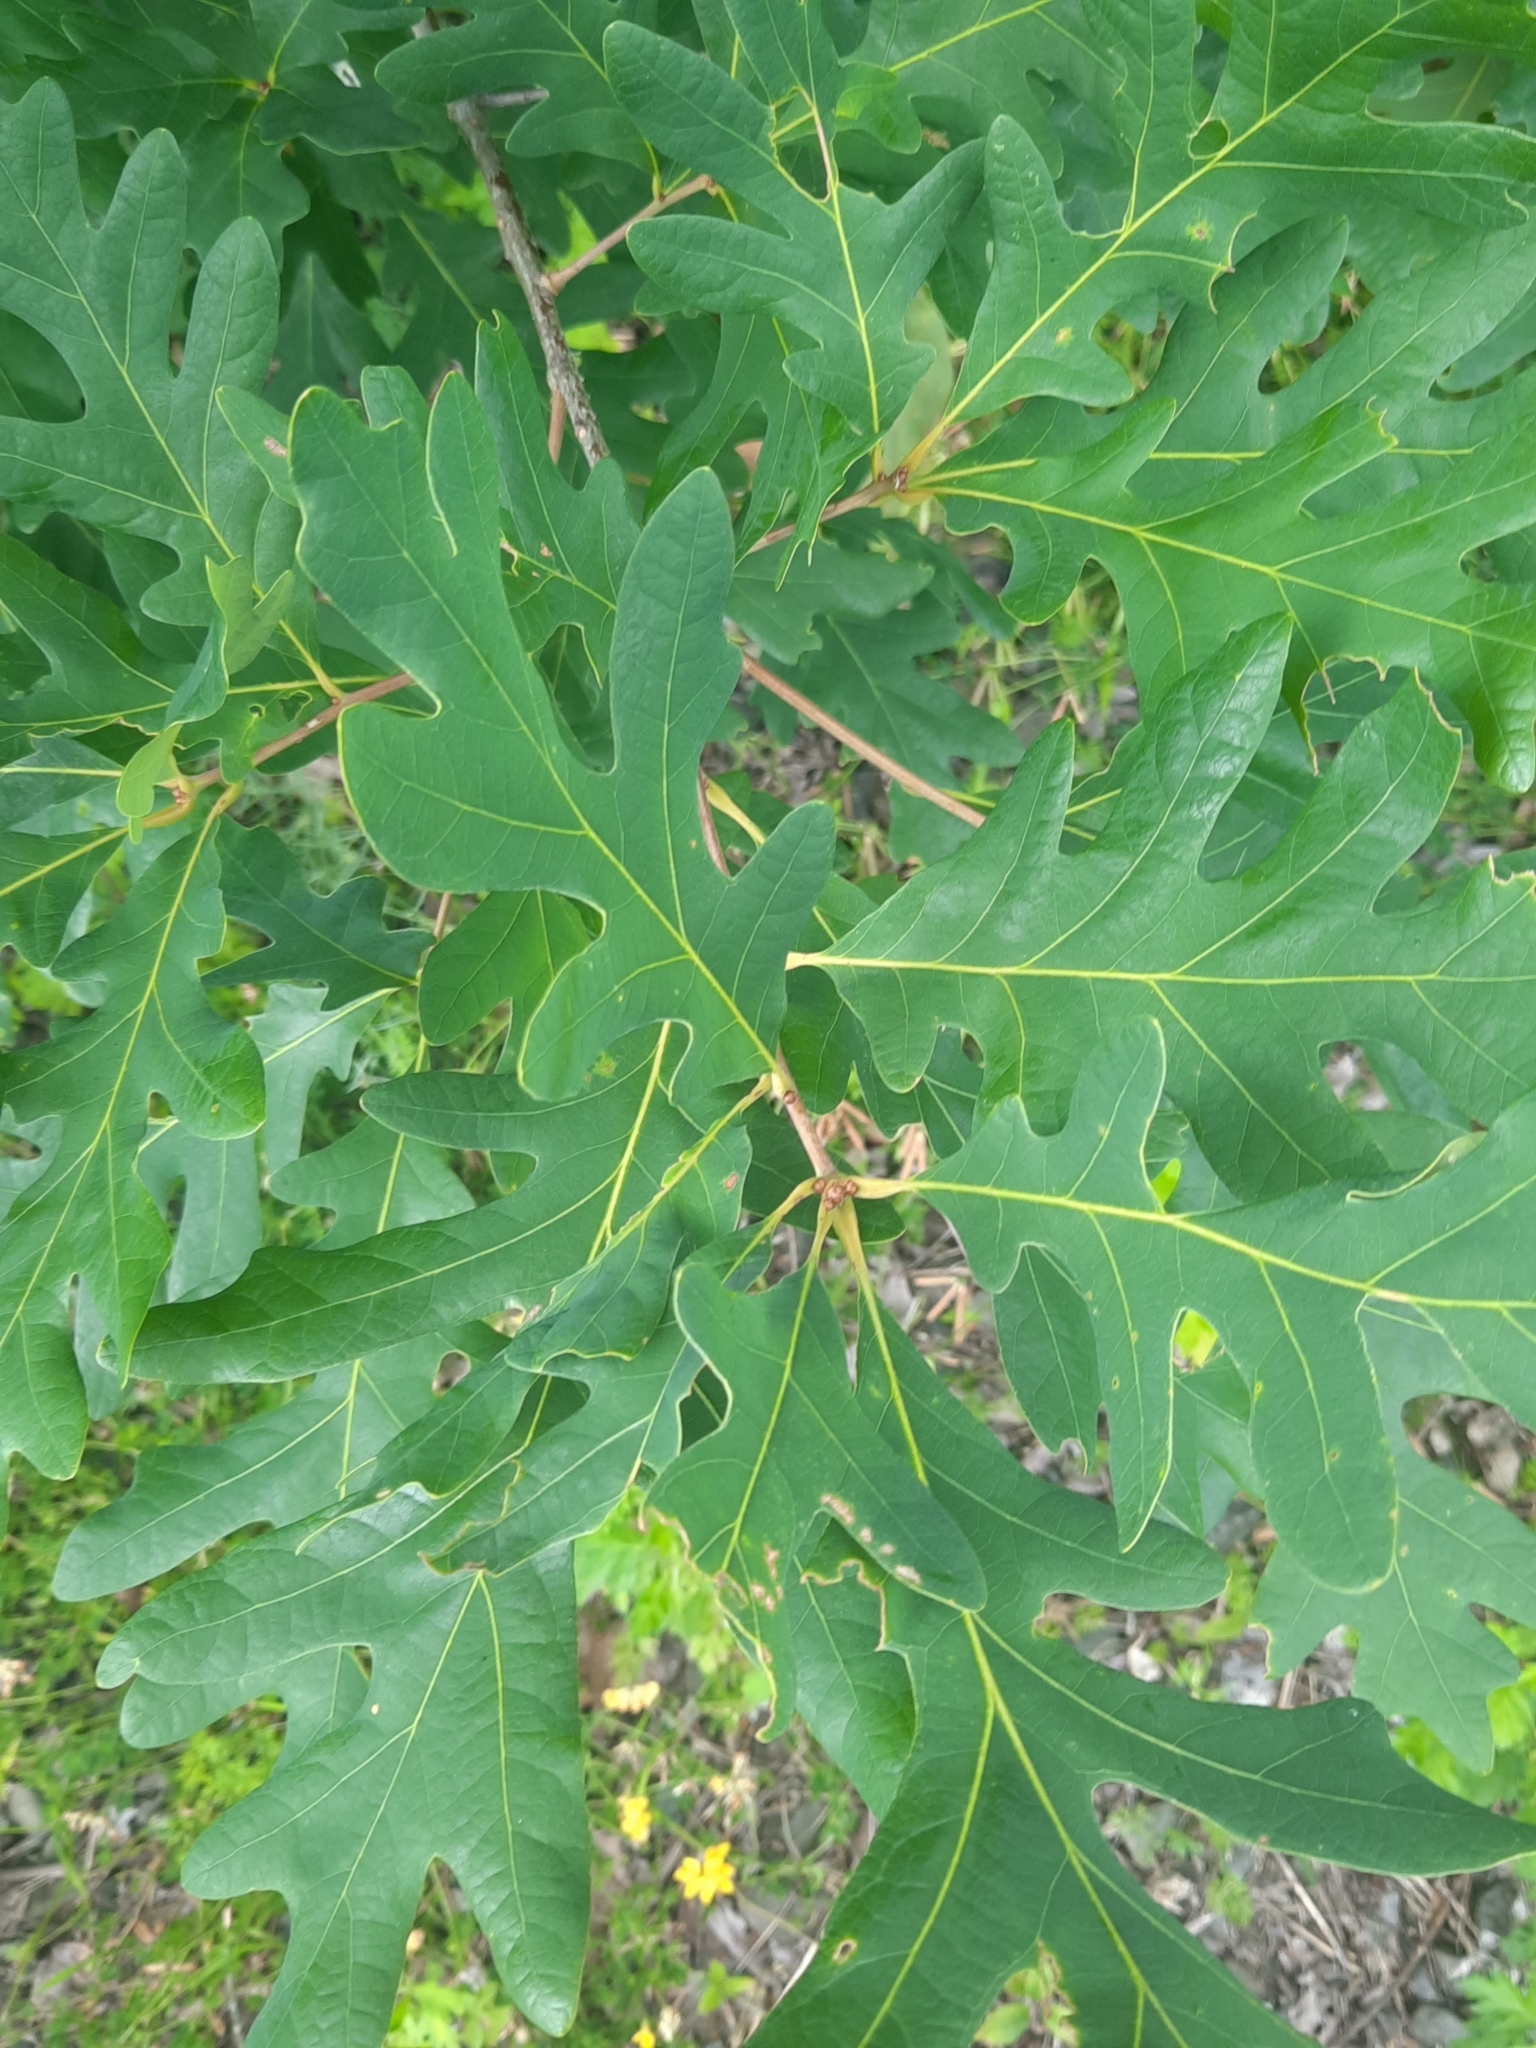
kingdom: Plantae
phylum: Tracheophyta
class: Magnoliopsida
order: Fagales
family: Fagaceae
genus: Quercus
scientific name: Quercus alba
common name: White oak
